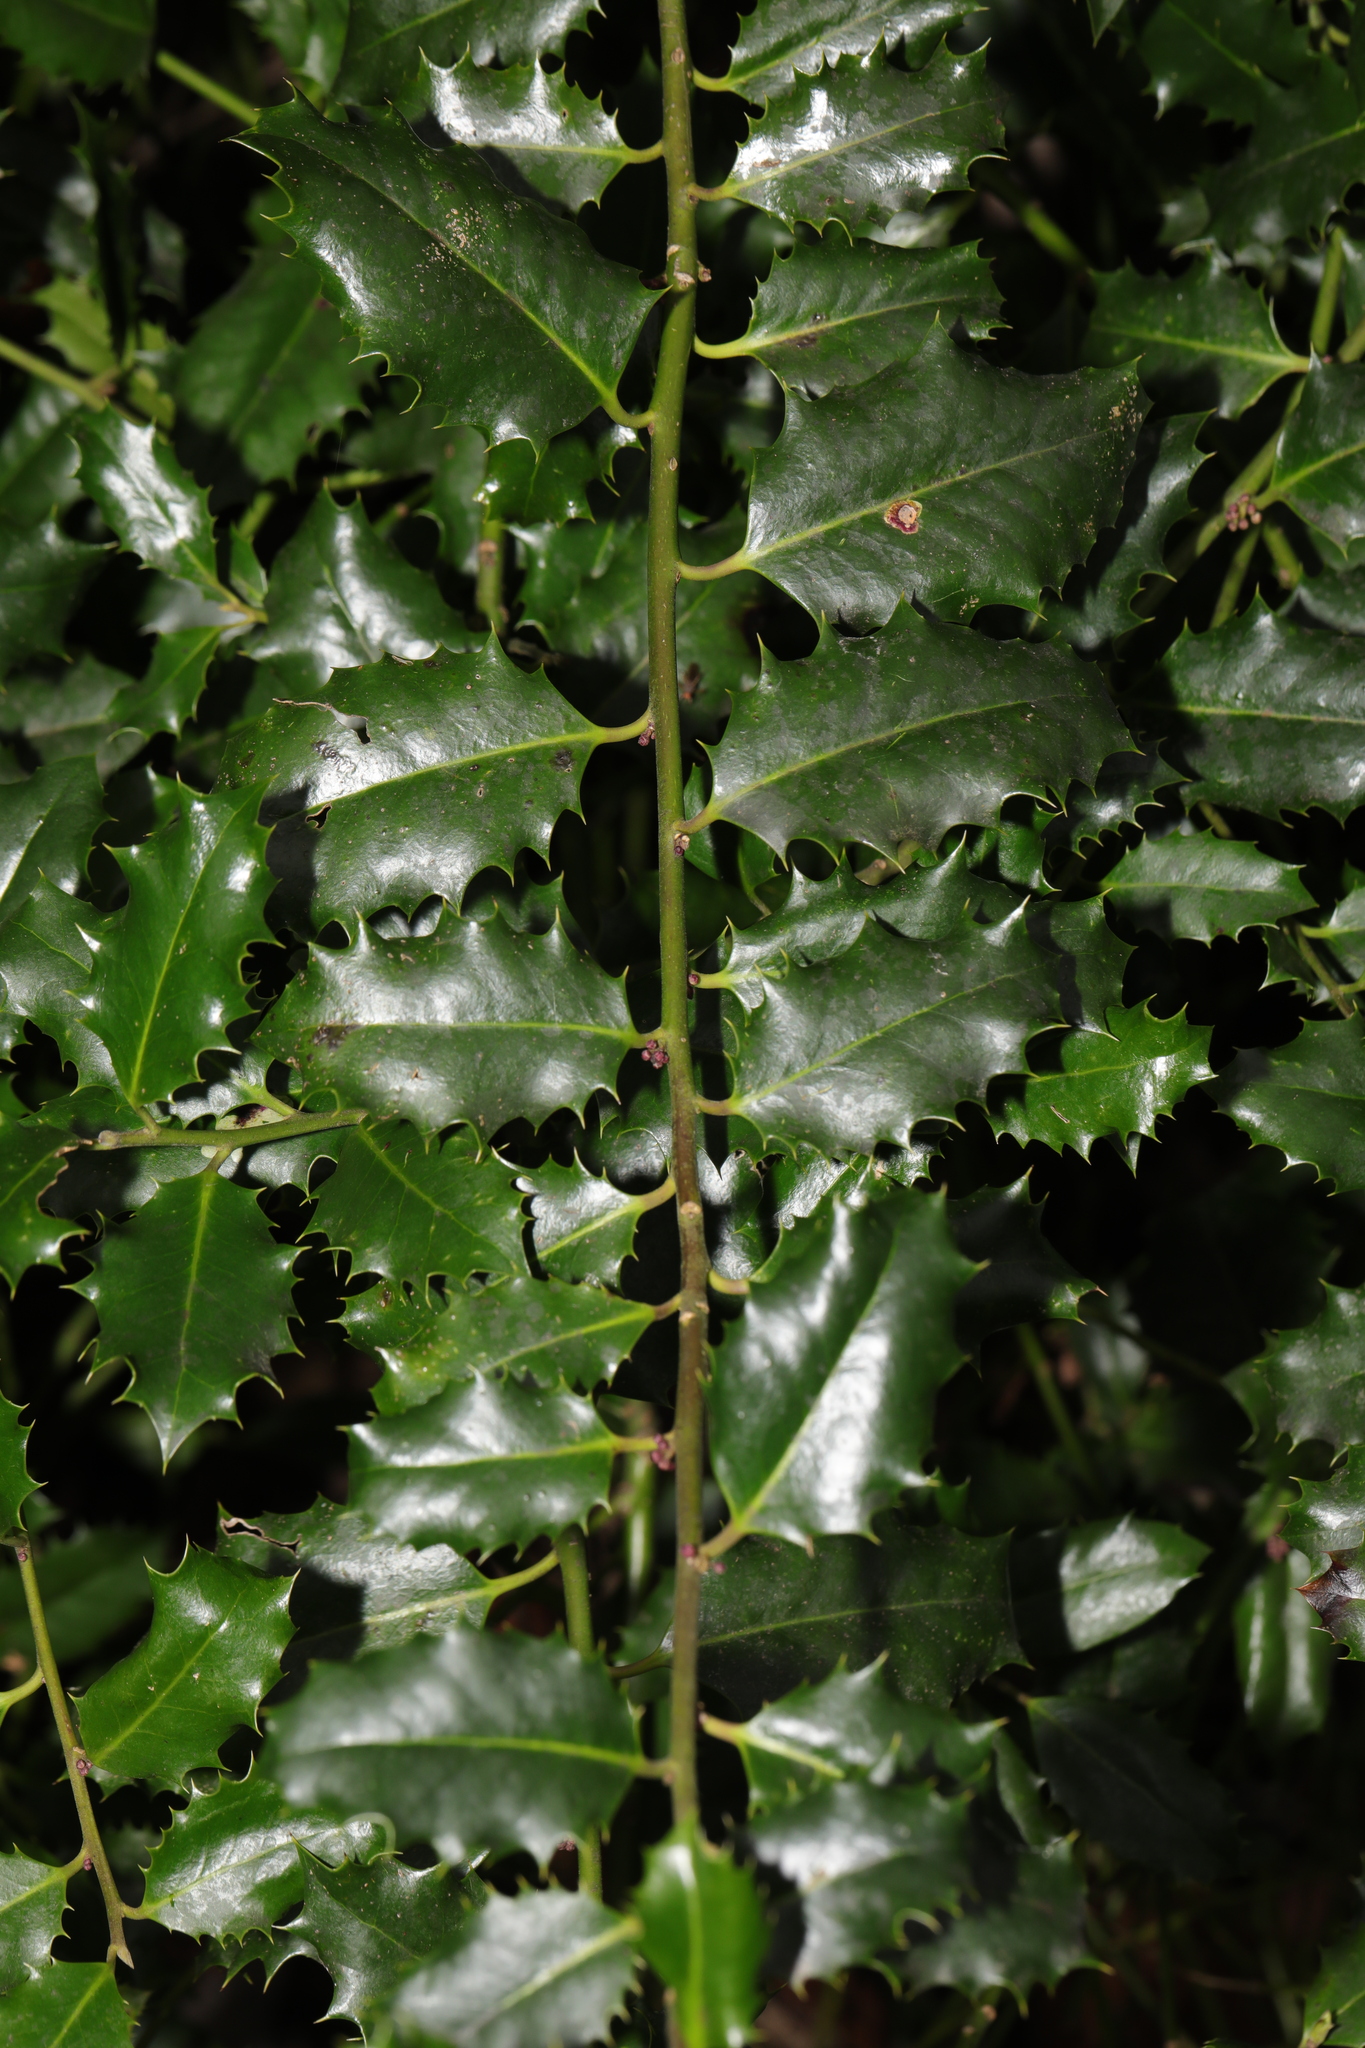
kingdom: Plantae
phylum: Tracheophyta
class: Magnoliopsida
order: Aquifoliales
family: Aquifoliaceae
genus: Ilex
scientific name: Ilex aquifolium
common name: English holly
